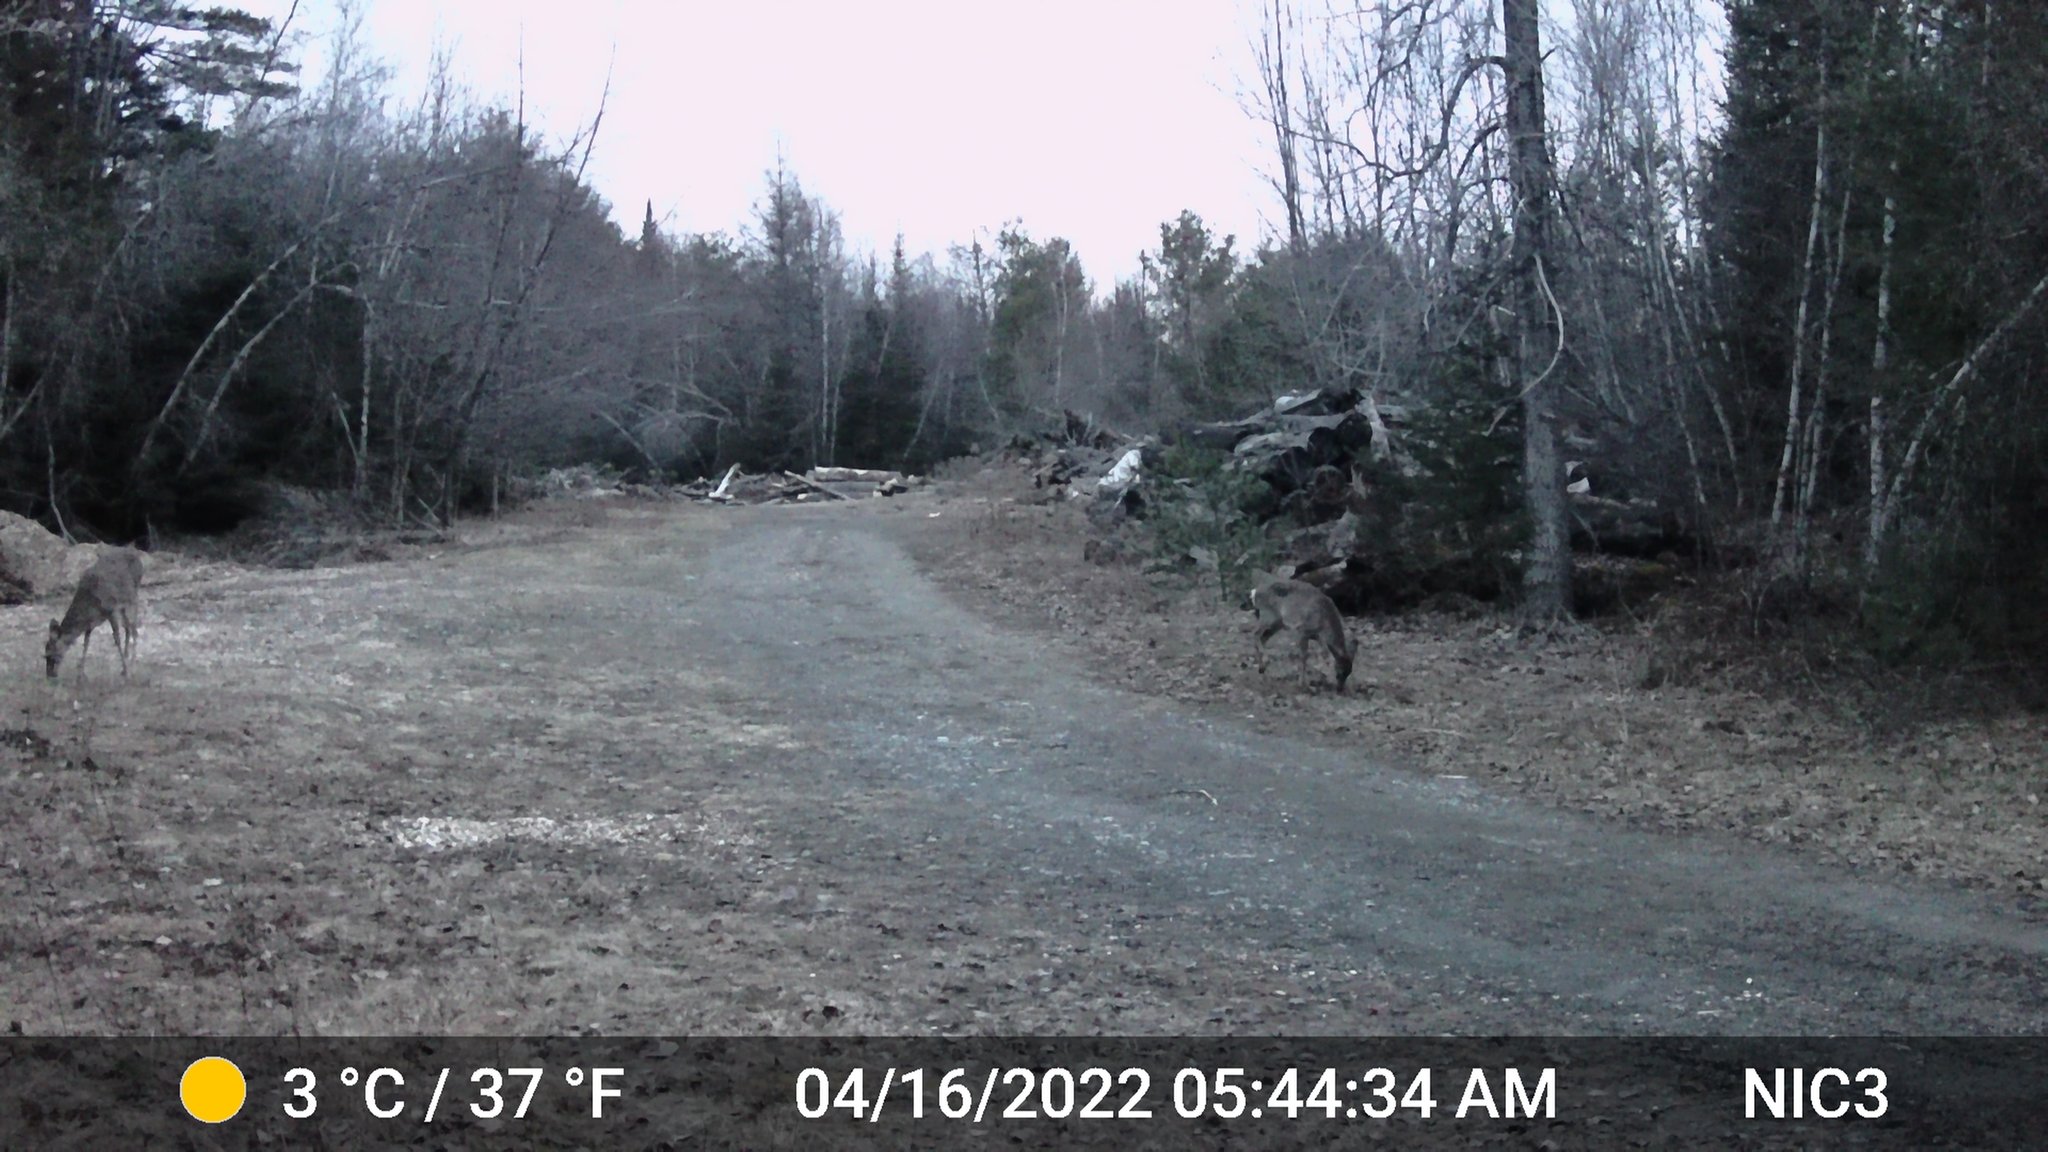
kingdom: Animalia
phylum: Chordata
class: Mammalia
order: Artiodactyla
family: Cervidae
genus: Odocoileus
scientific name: Odocoileus virginianus
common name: White-tailed deer
